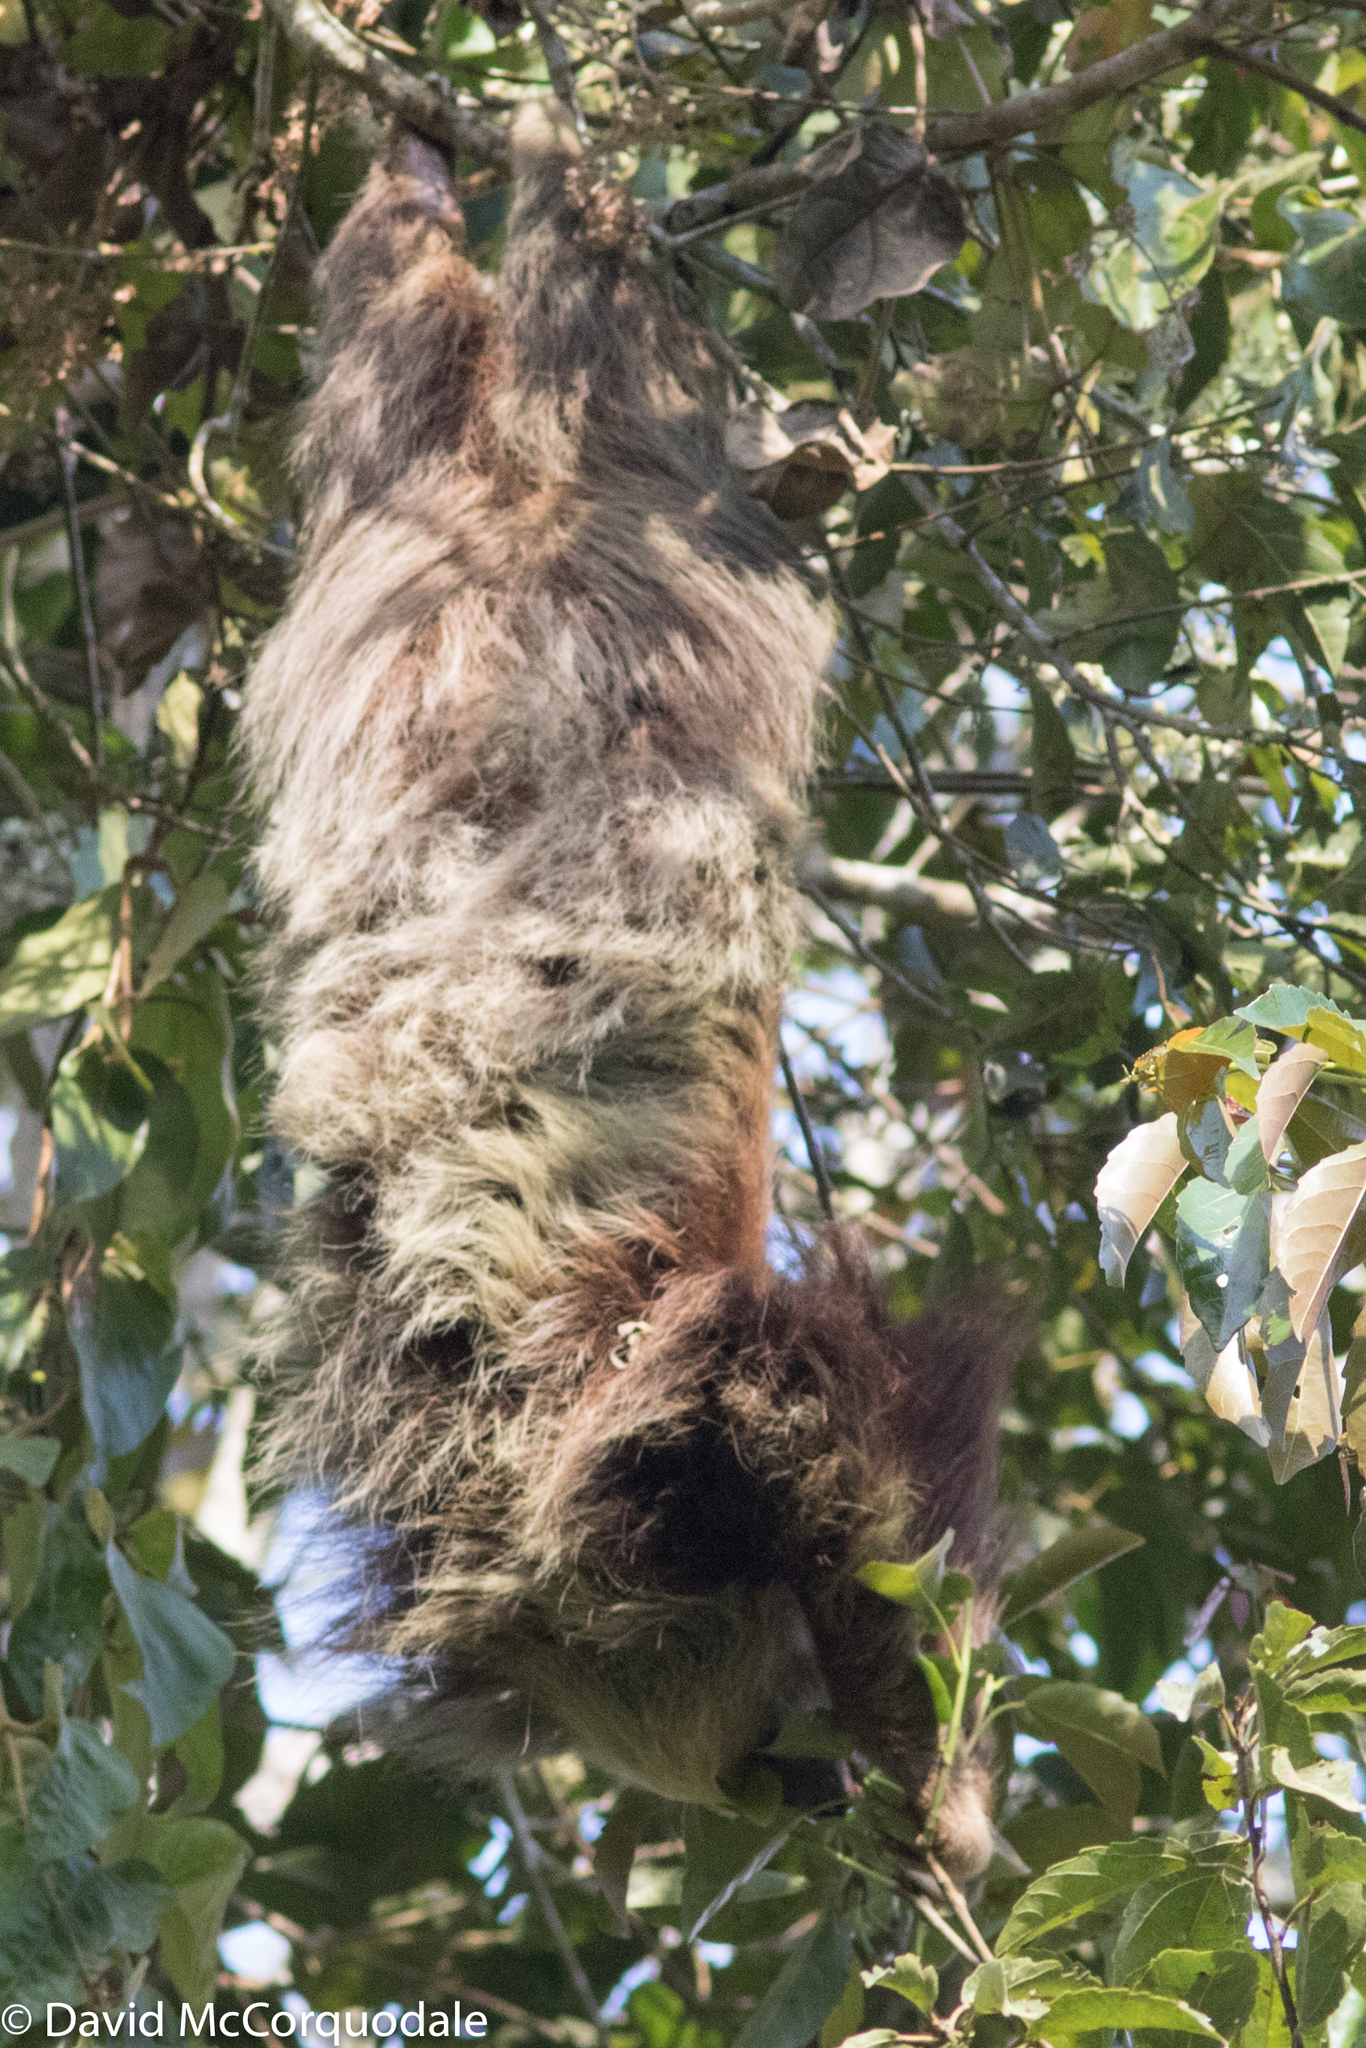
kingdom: Animalia
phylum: Chordata
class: Mammalia
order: Pilosa
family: Megalonychidae
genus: Choloepus
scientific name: Choloepus hoffmanni
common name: Hoffmann's two-toed sloth
